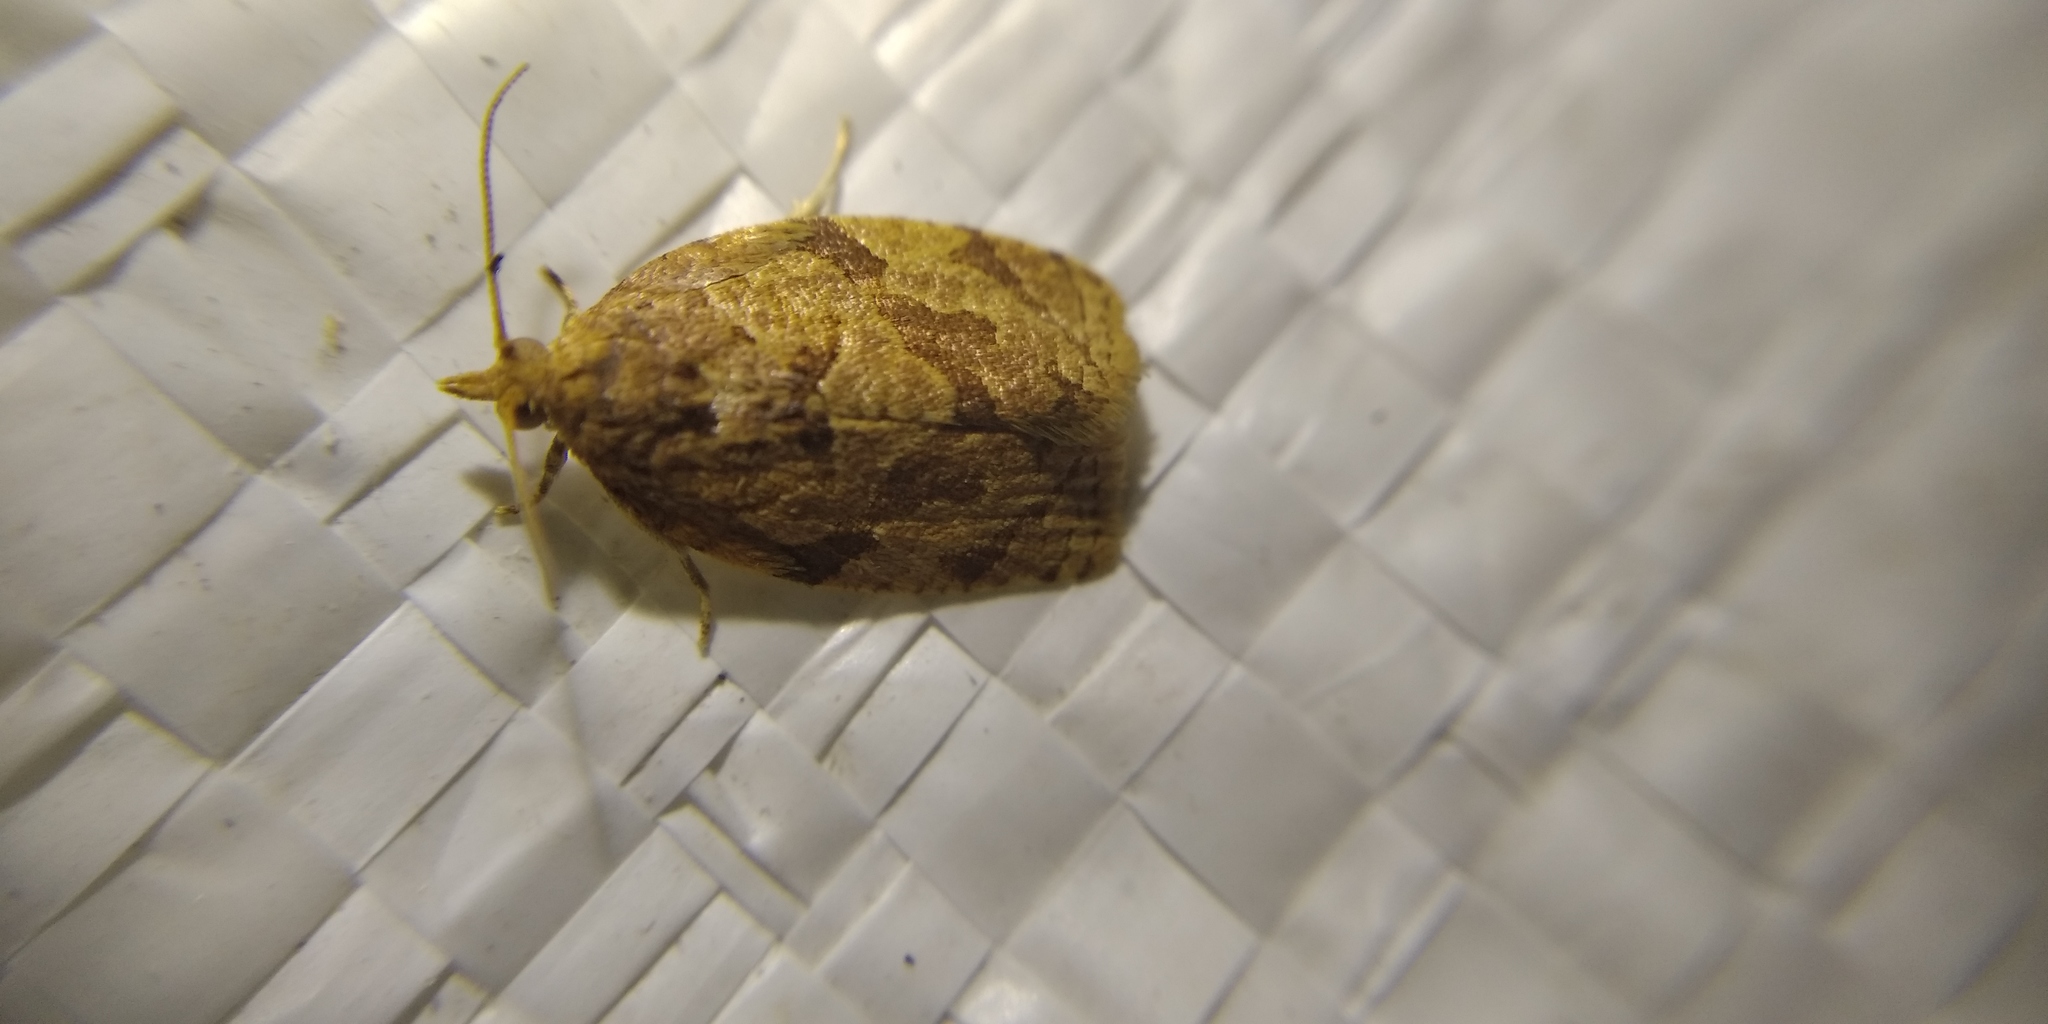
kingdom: Animalia
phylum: Arthropoda
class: Insecta
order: Lepidoptera
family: Tortricidae
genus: Adoxophyes
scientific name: Adoxophyes orana
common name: Summer fruit tortrix
